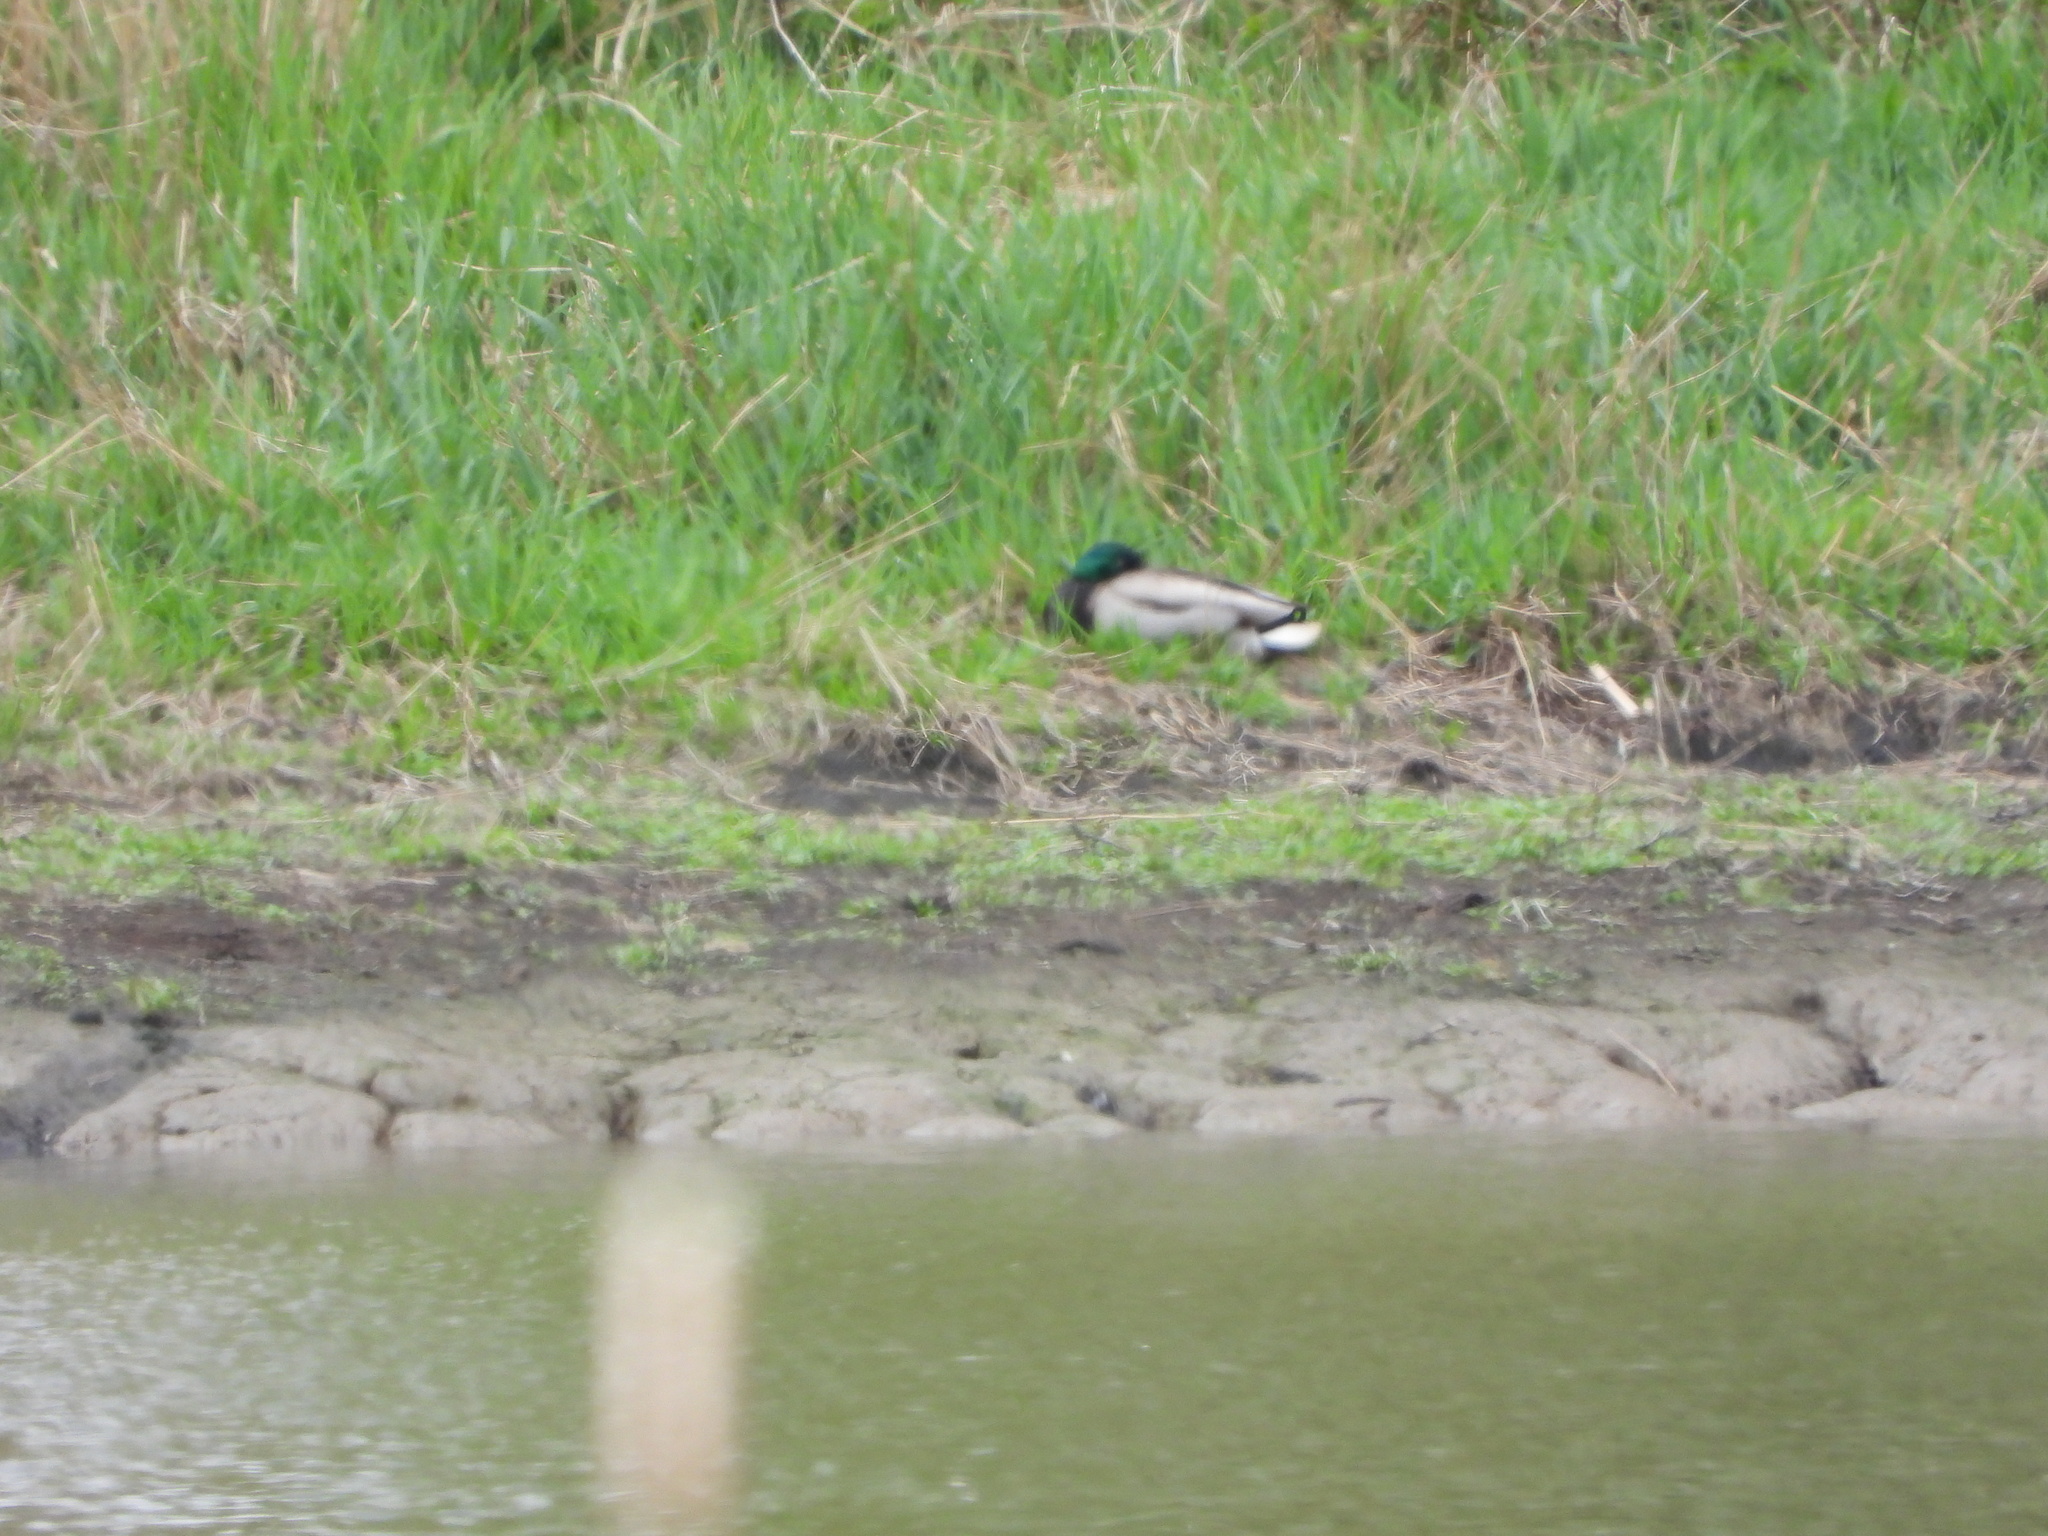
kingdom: Animalia
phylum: Chordata
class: Aves
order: Anseriformes
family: Anatidae
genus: Anas
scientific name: Anas platyrhynchos
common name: Mallard
